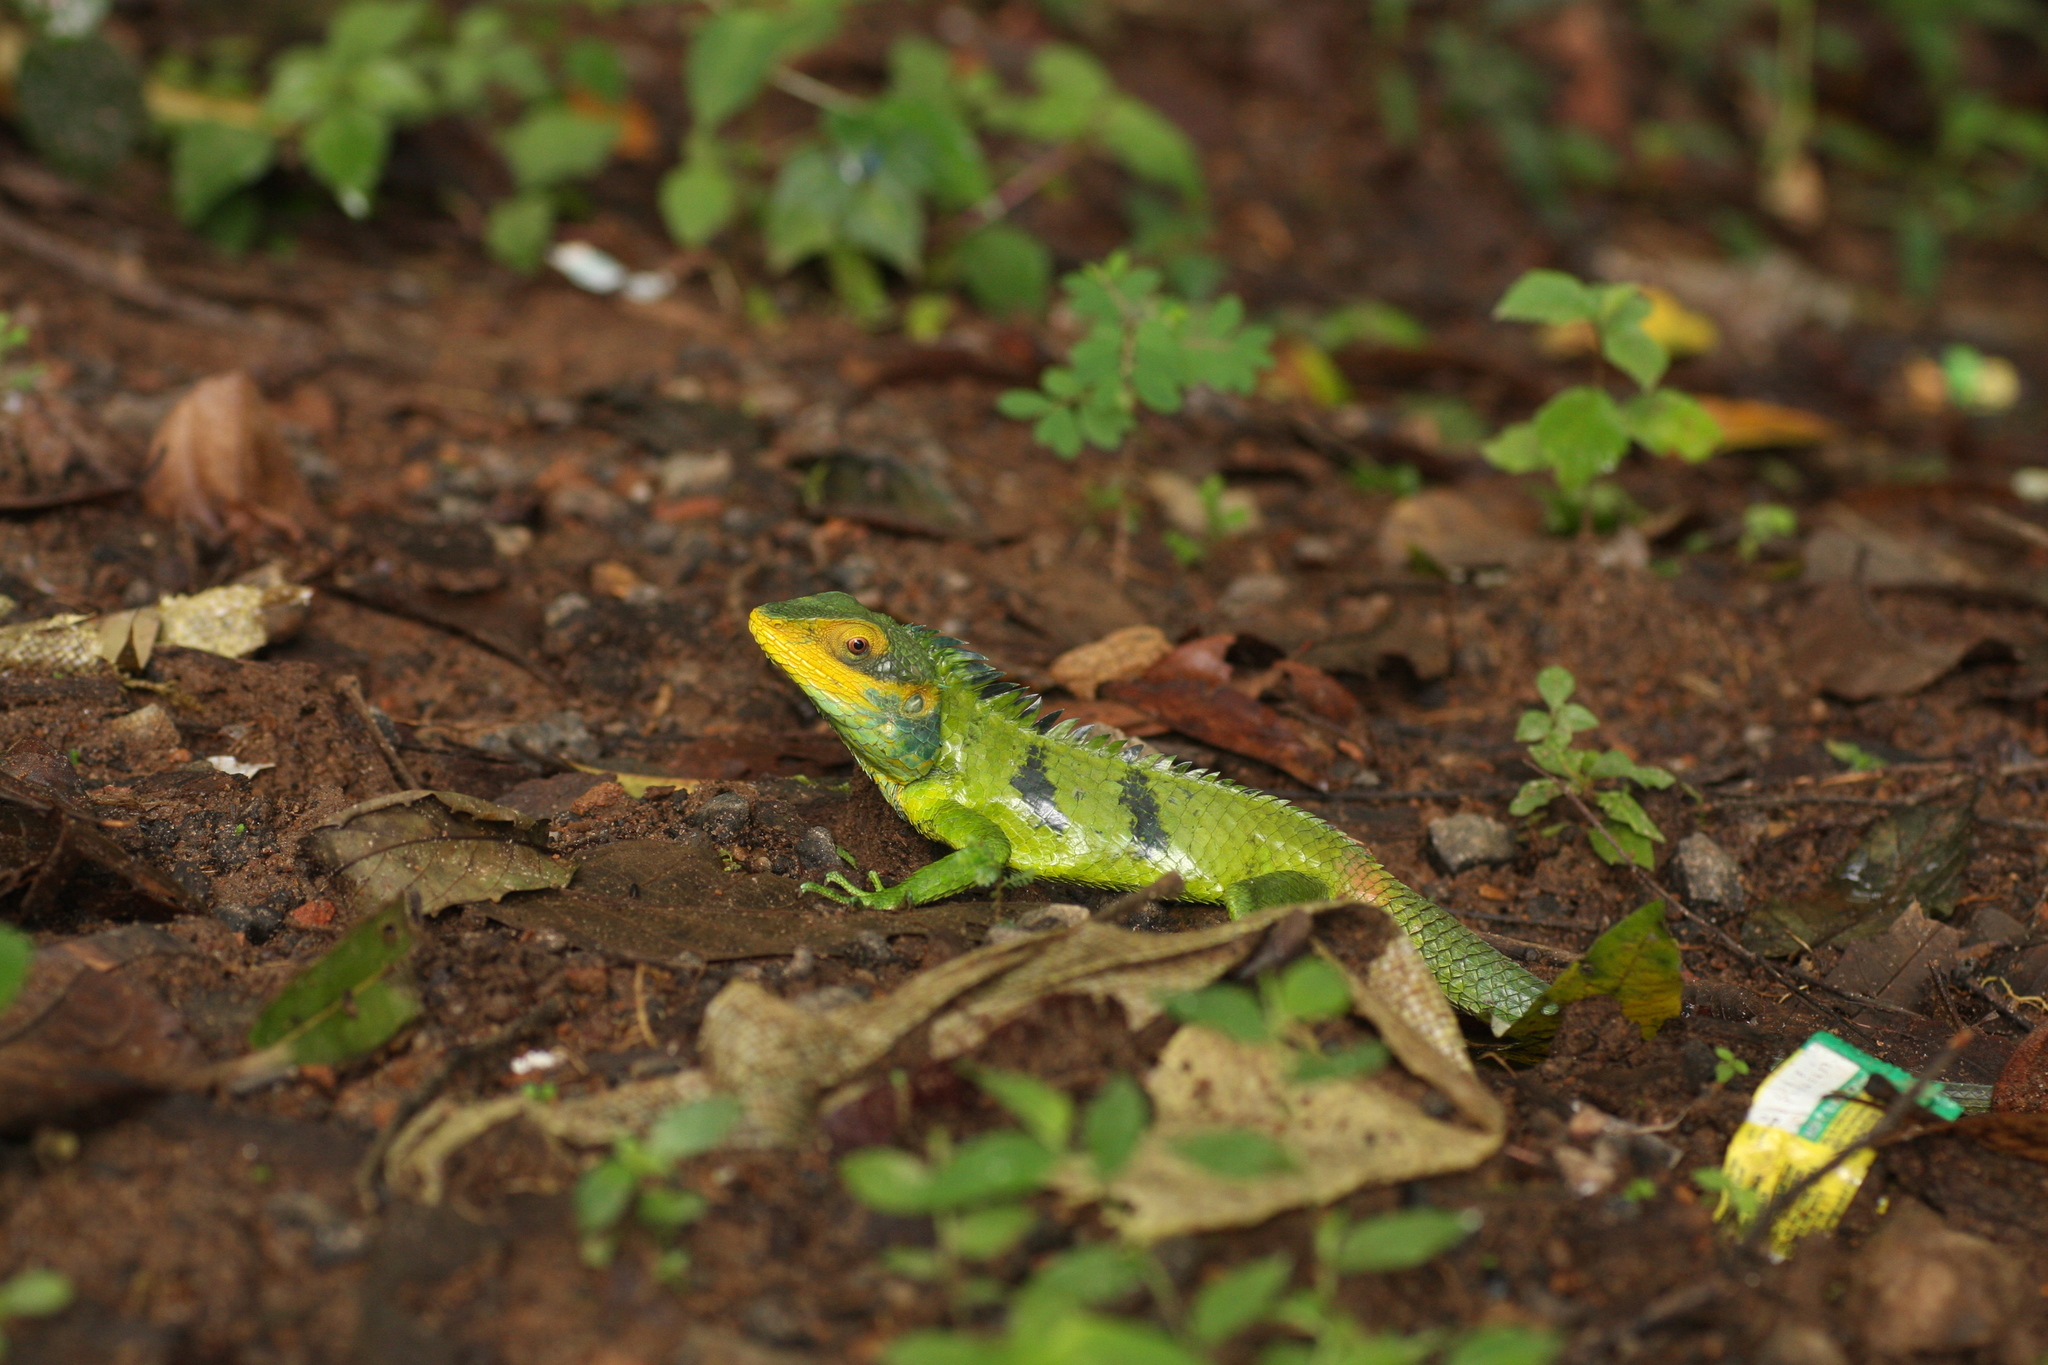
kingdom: Animalia
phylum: Chordata
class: Squamata
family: Agamidae
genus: Calotes
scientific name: Calotes grandisquamis
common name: Big scaled variable lizard
